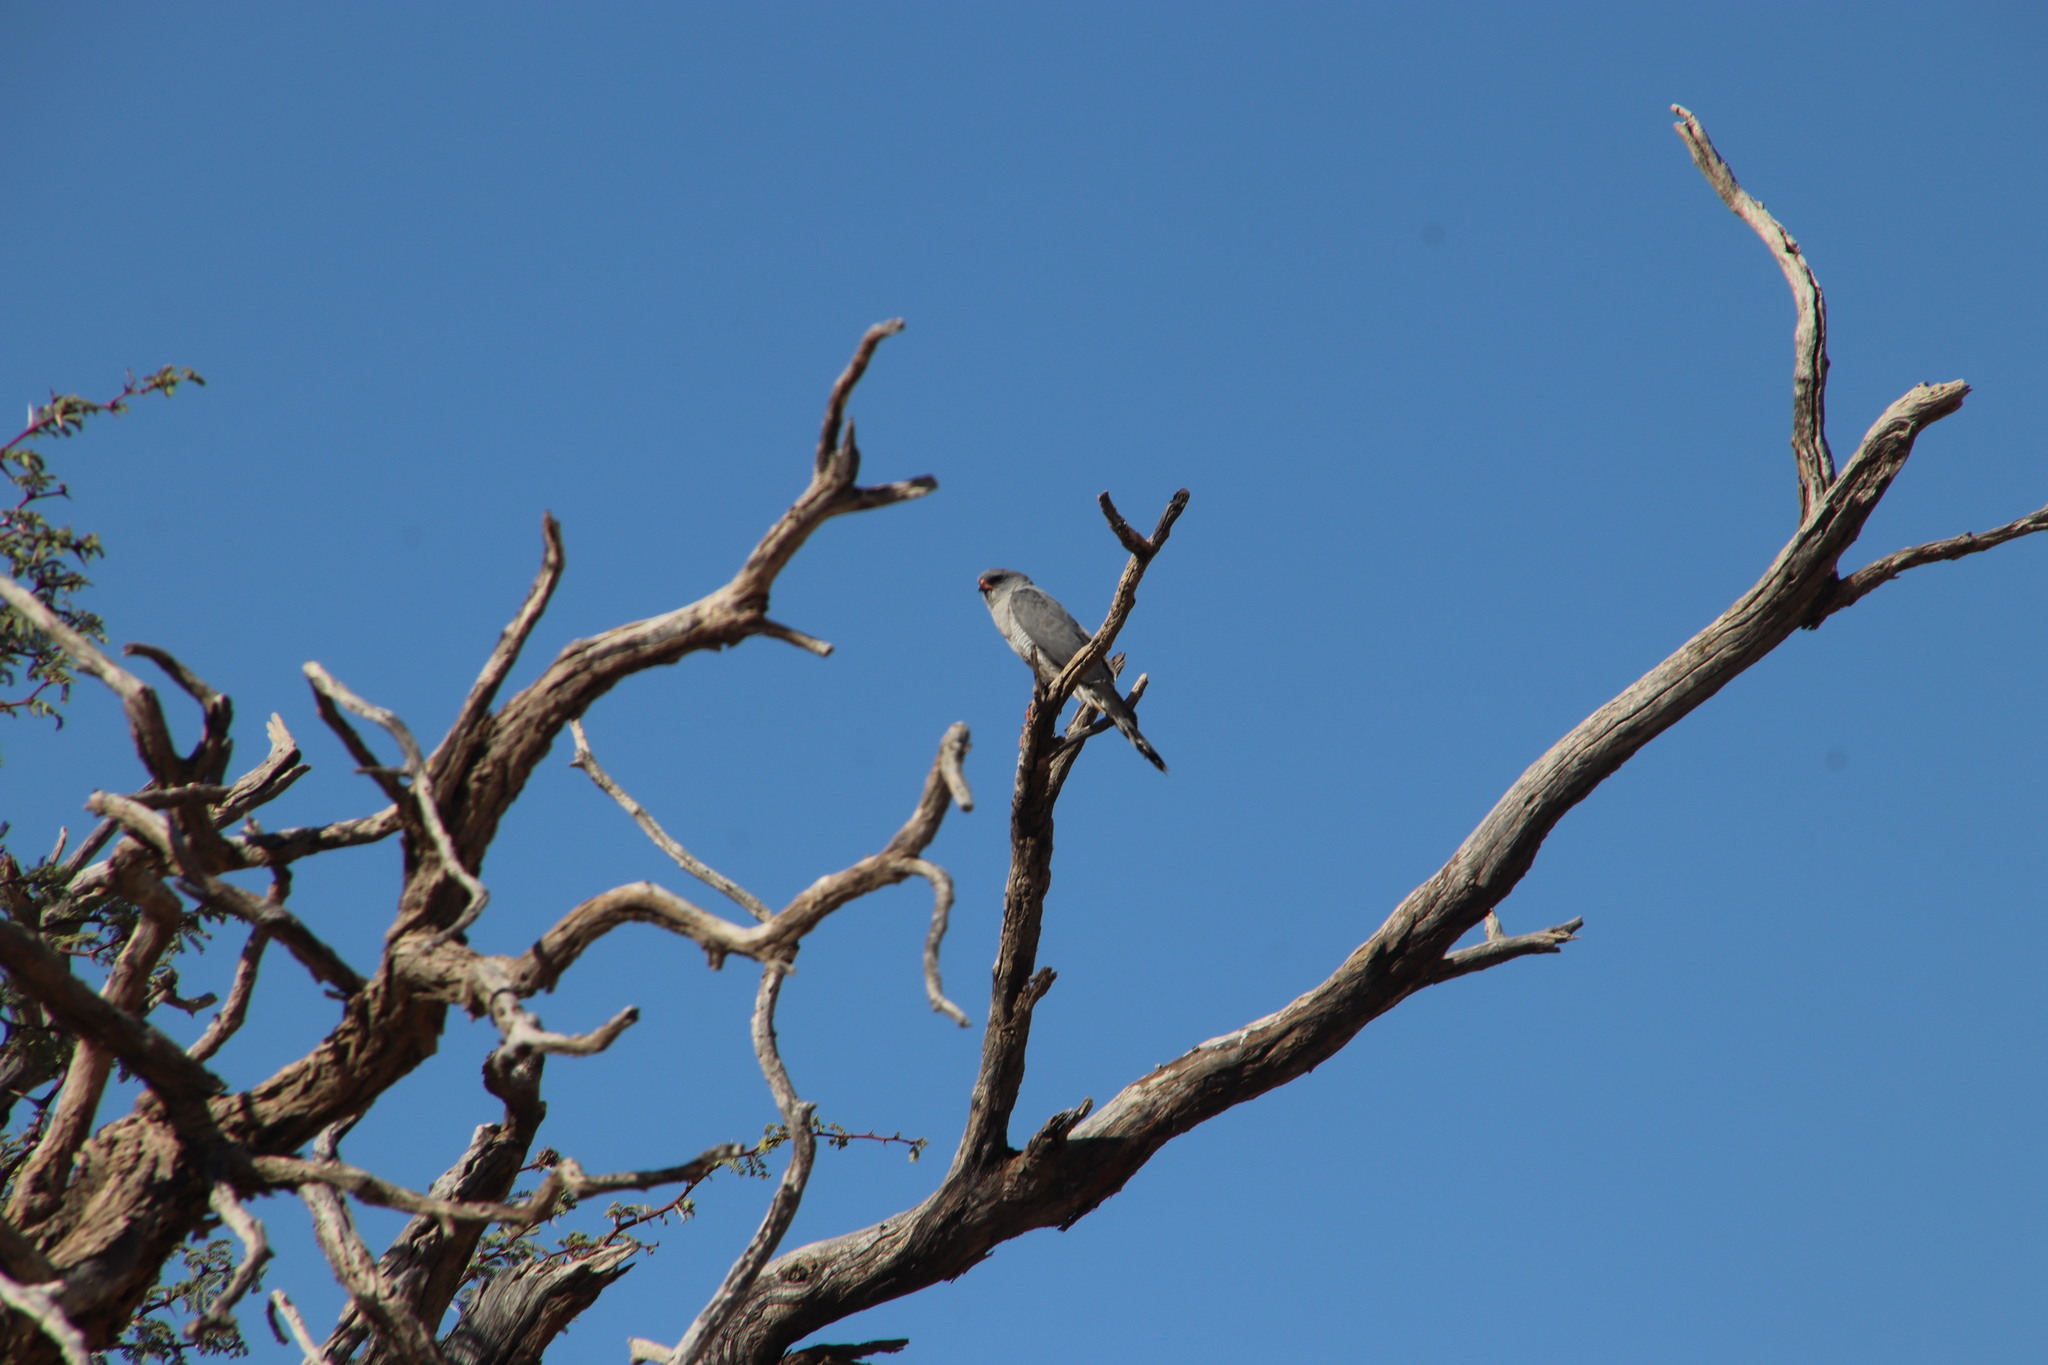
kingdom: Animalia
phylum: Chordata
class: Aves
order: Accipitriformes
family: Accipitridae
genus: Melierax
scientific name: Melierax canorus
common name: Pale chanting-goshawk
